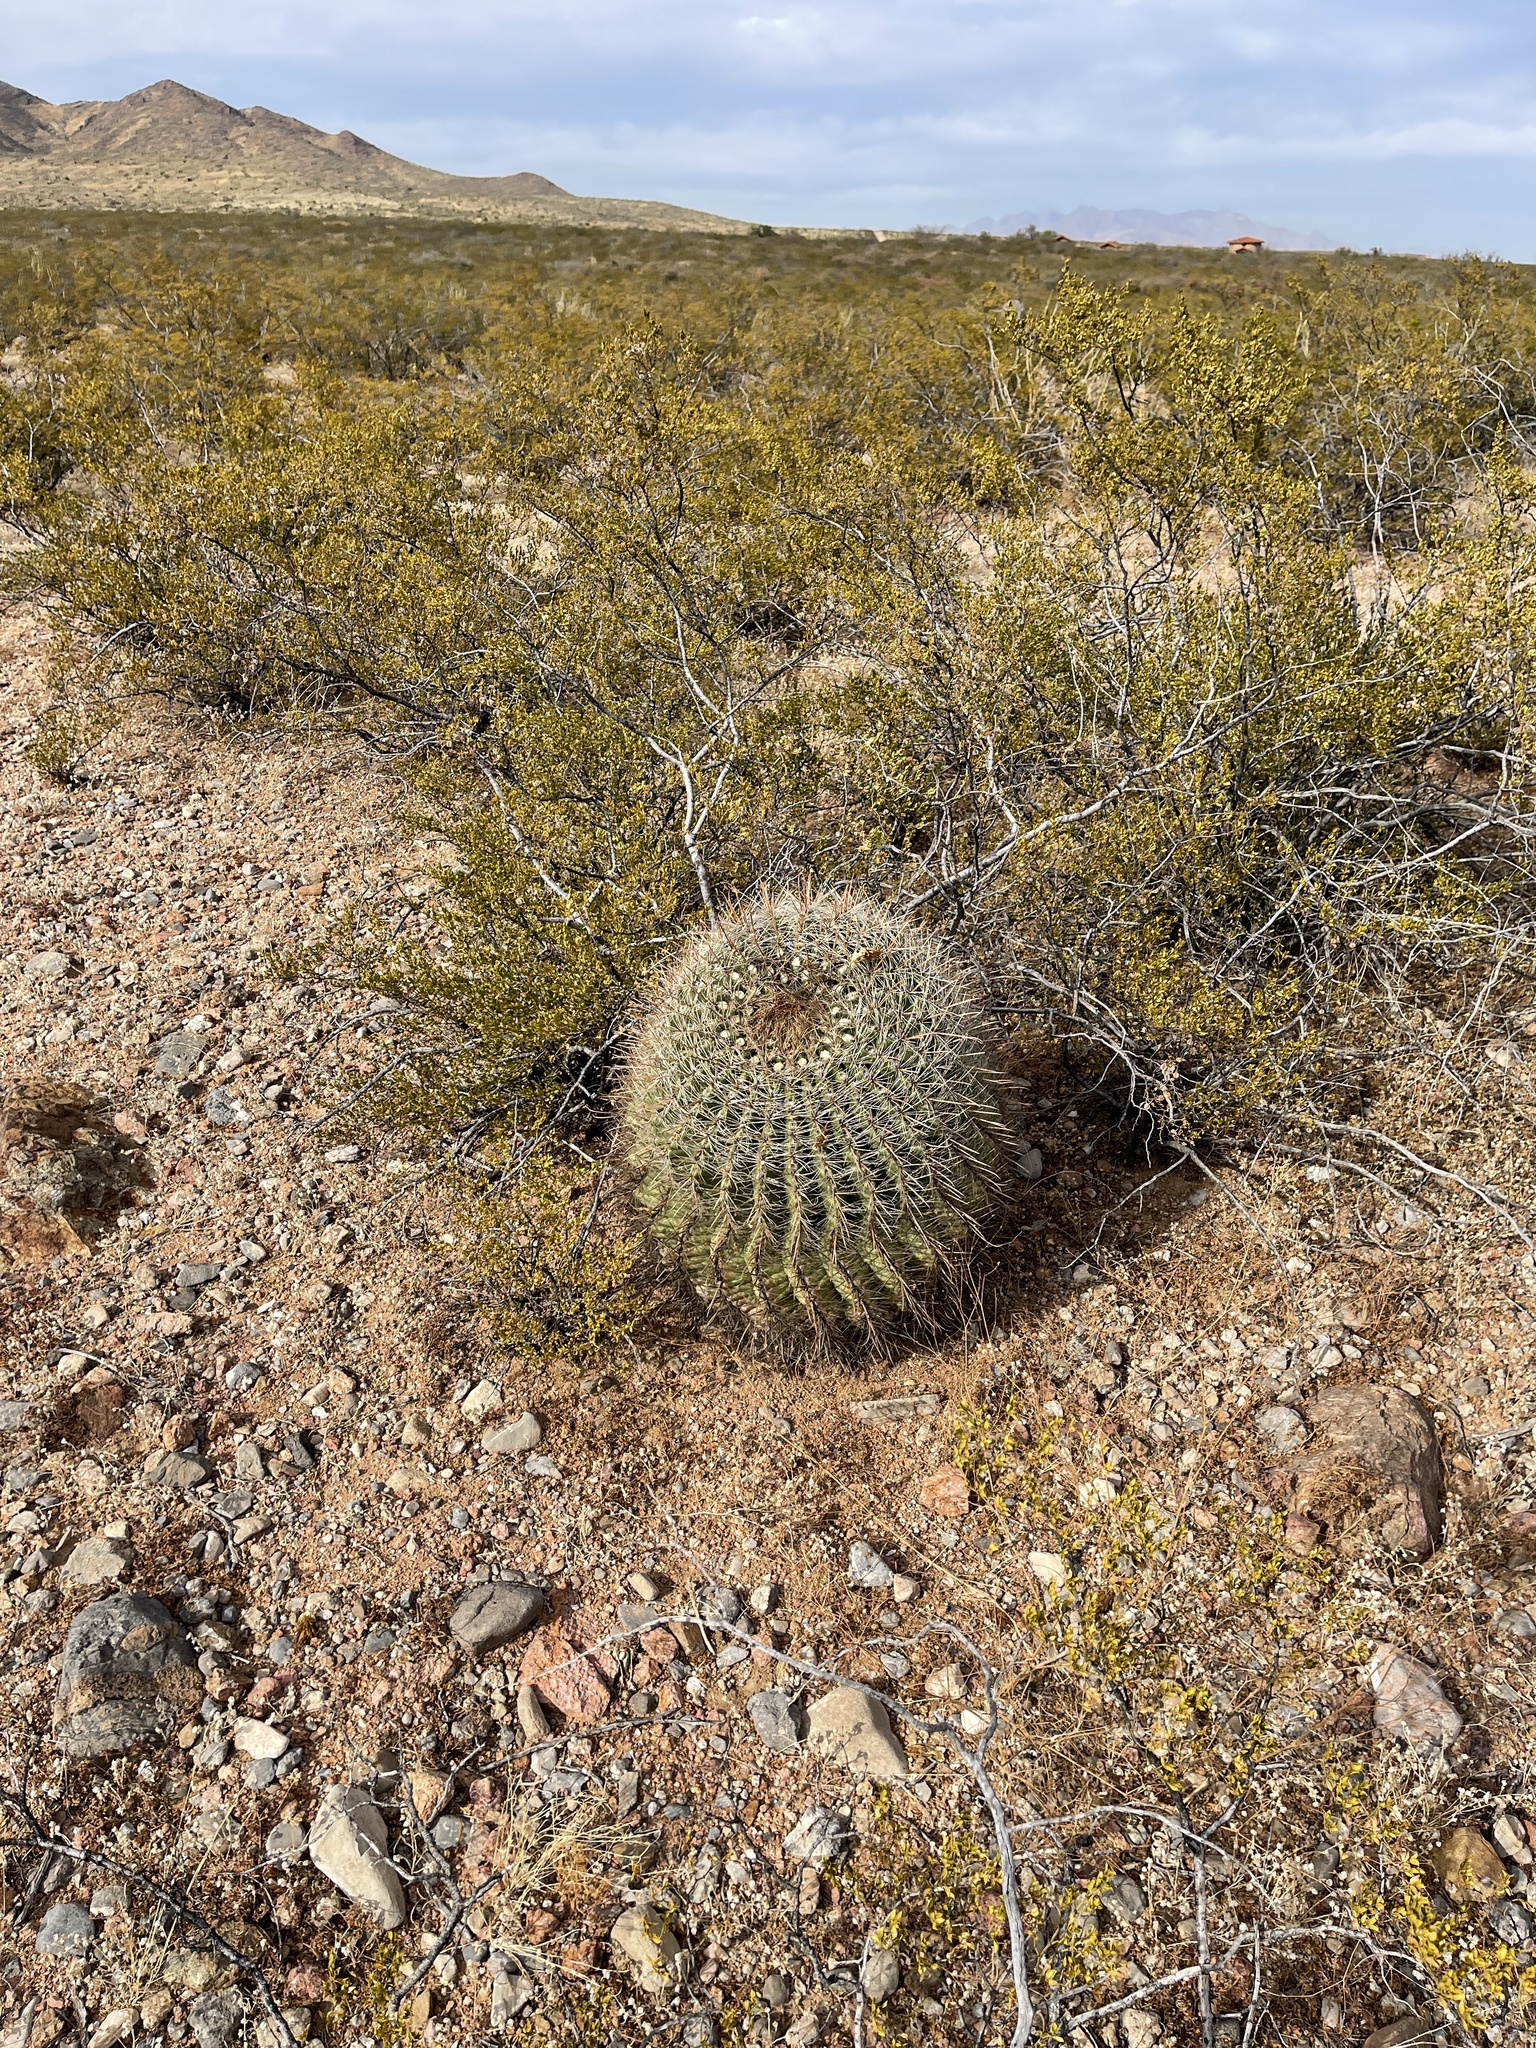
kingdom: Plantae
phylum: Tracheophyta
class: Magnoliopsida
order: Caryophyllales
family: Cactaceae
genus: Ferocactus
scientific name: Ferocactus wislizeni
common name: Candy barrel cactus
